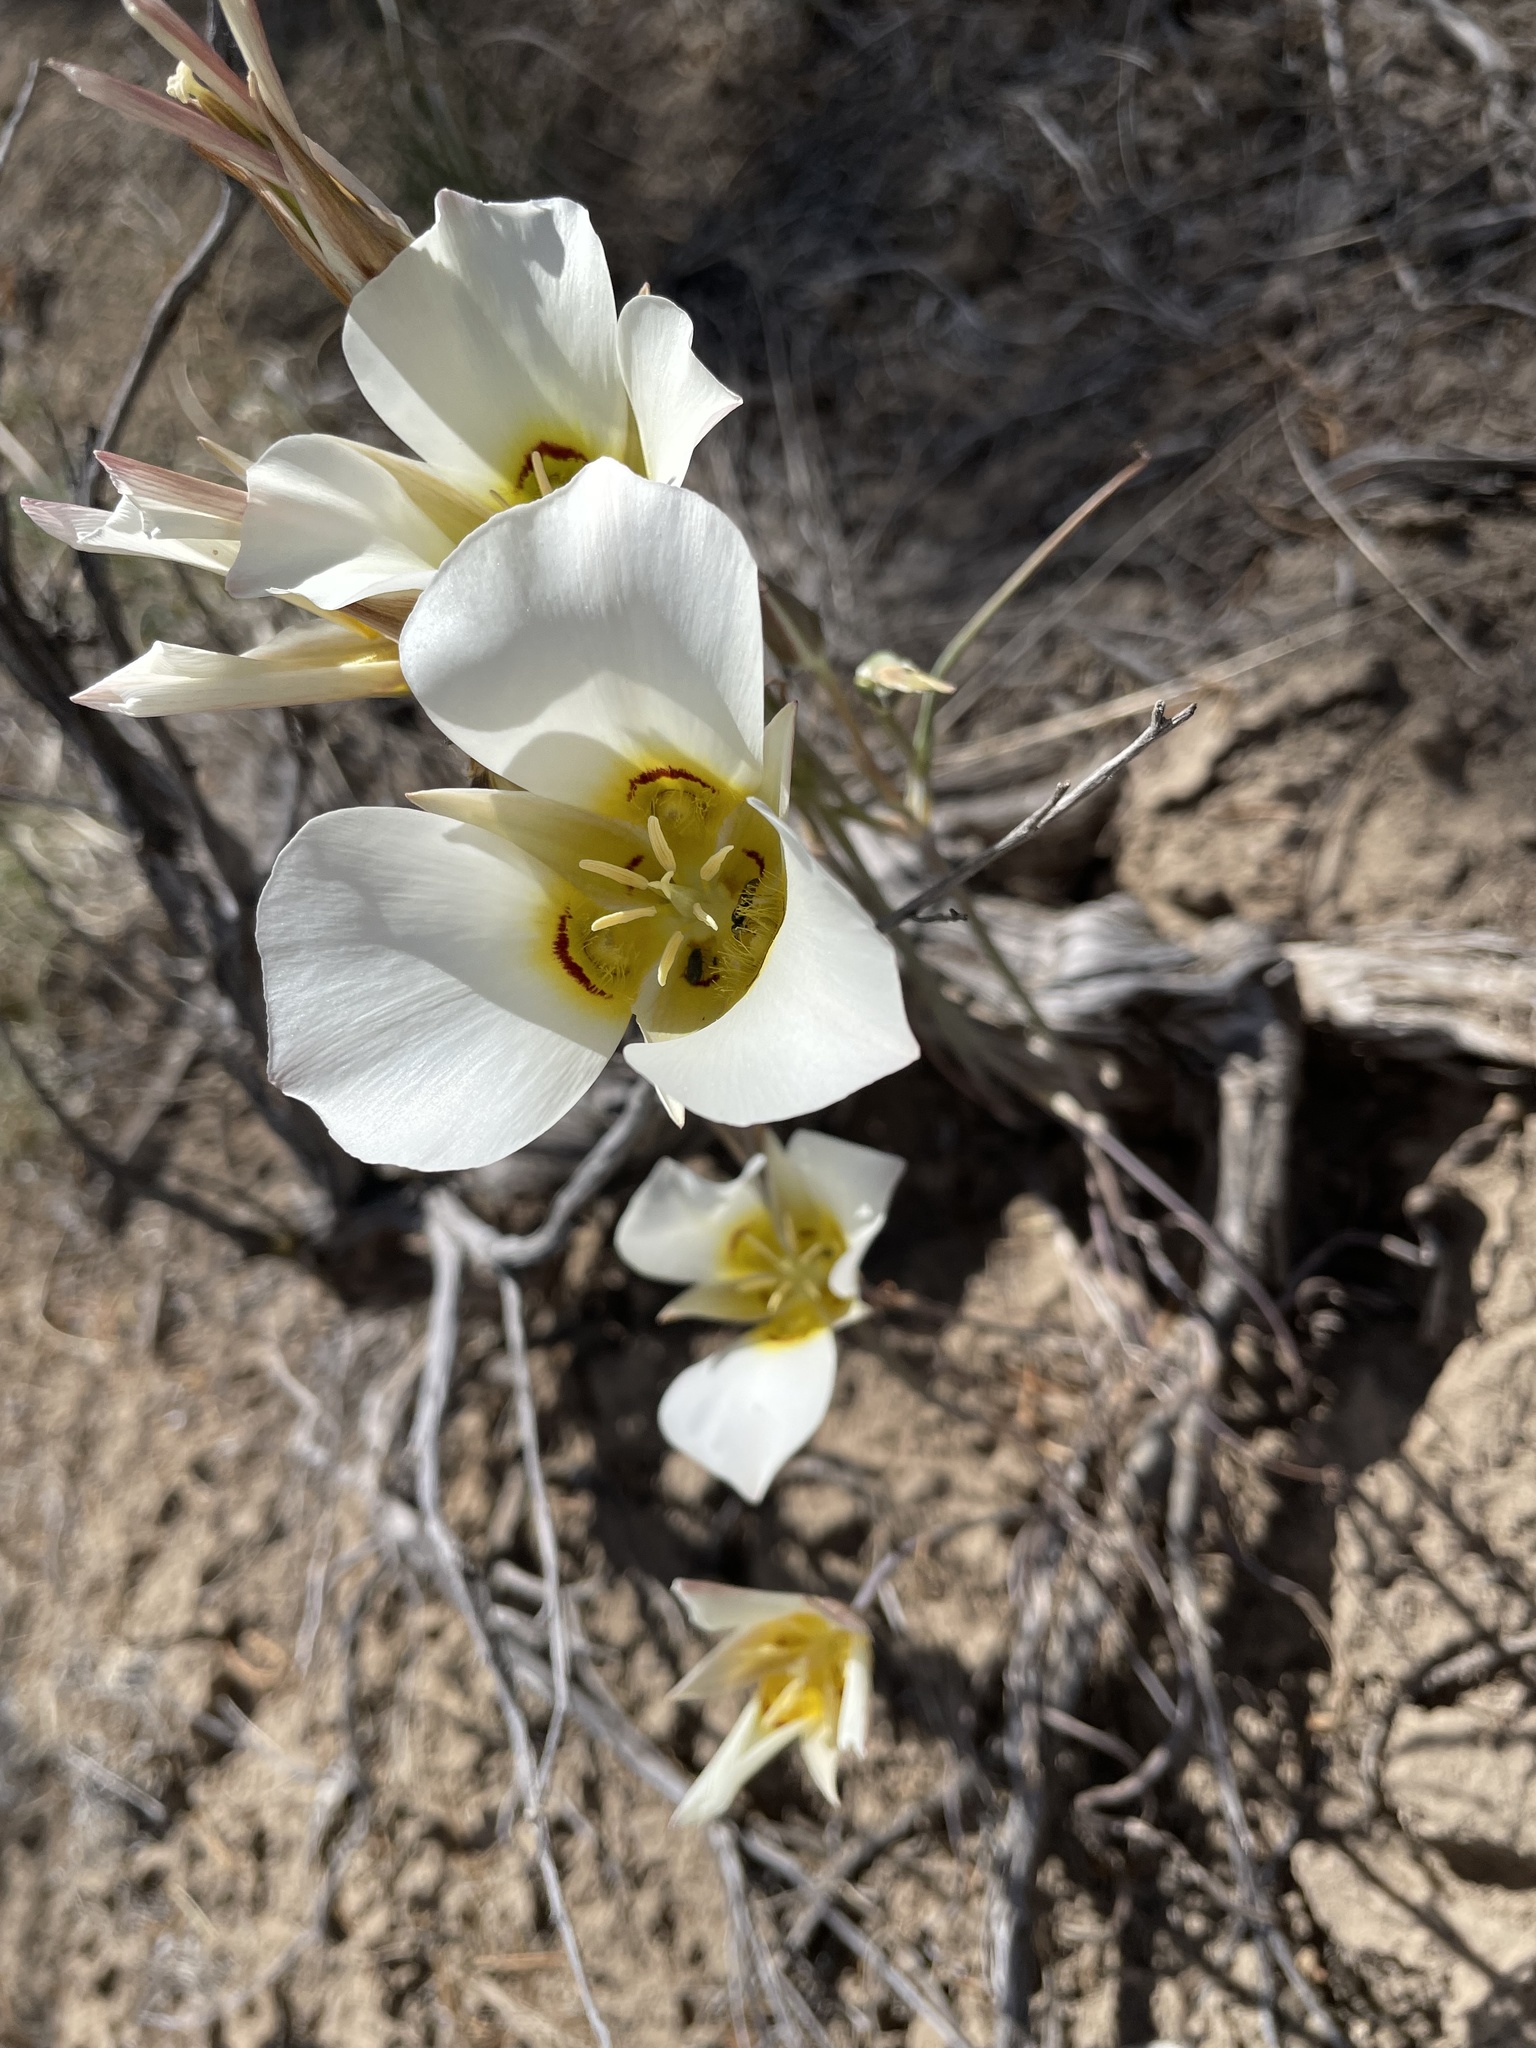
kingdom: Plantae
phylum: Tracheophyta
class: Liliopsida
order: Liliales
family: Liliaceae
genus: Calochortus
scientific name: Calochortus nuttallii
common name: Sego-lily
